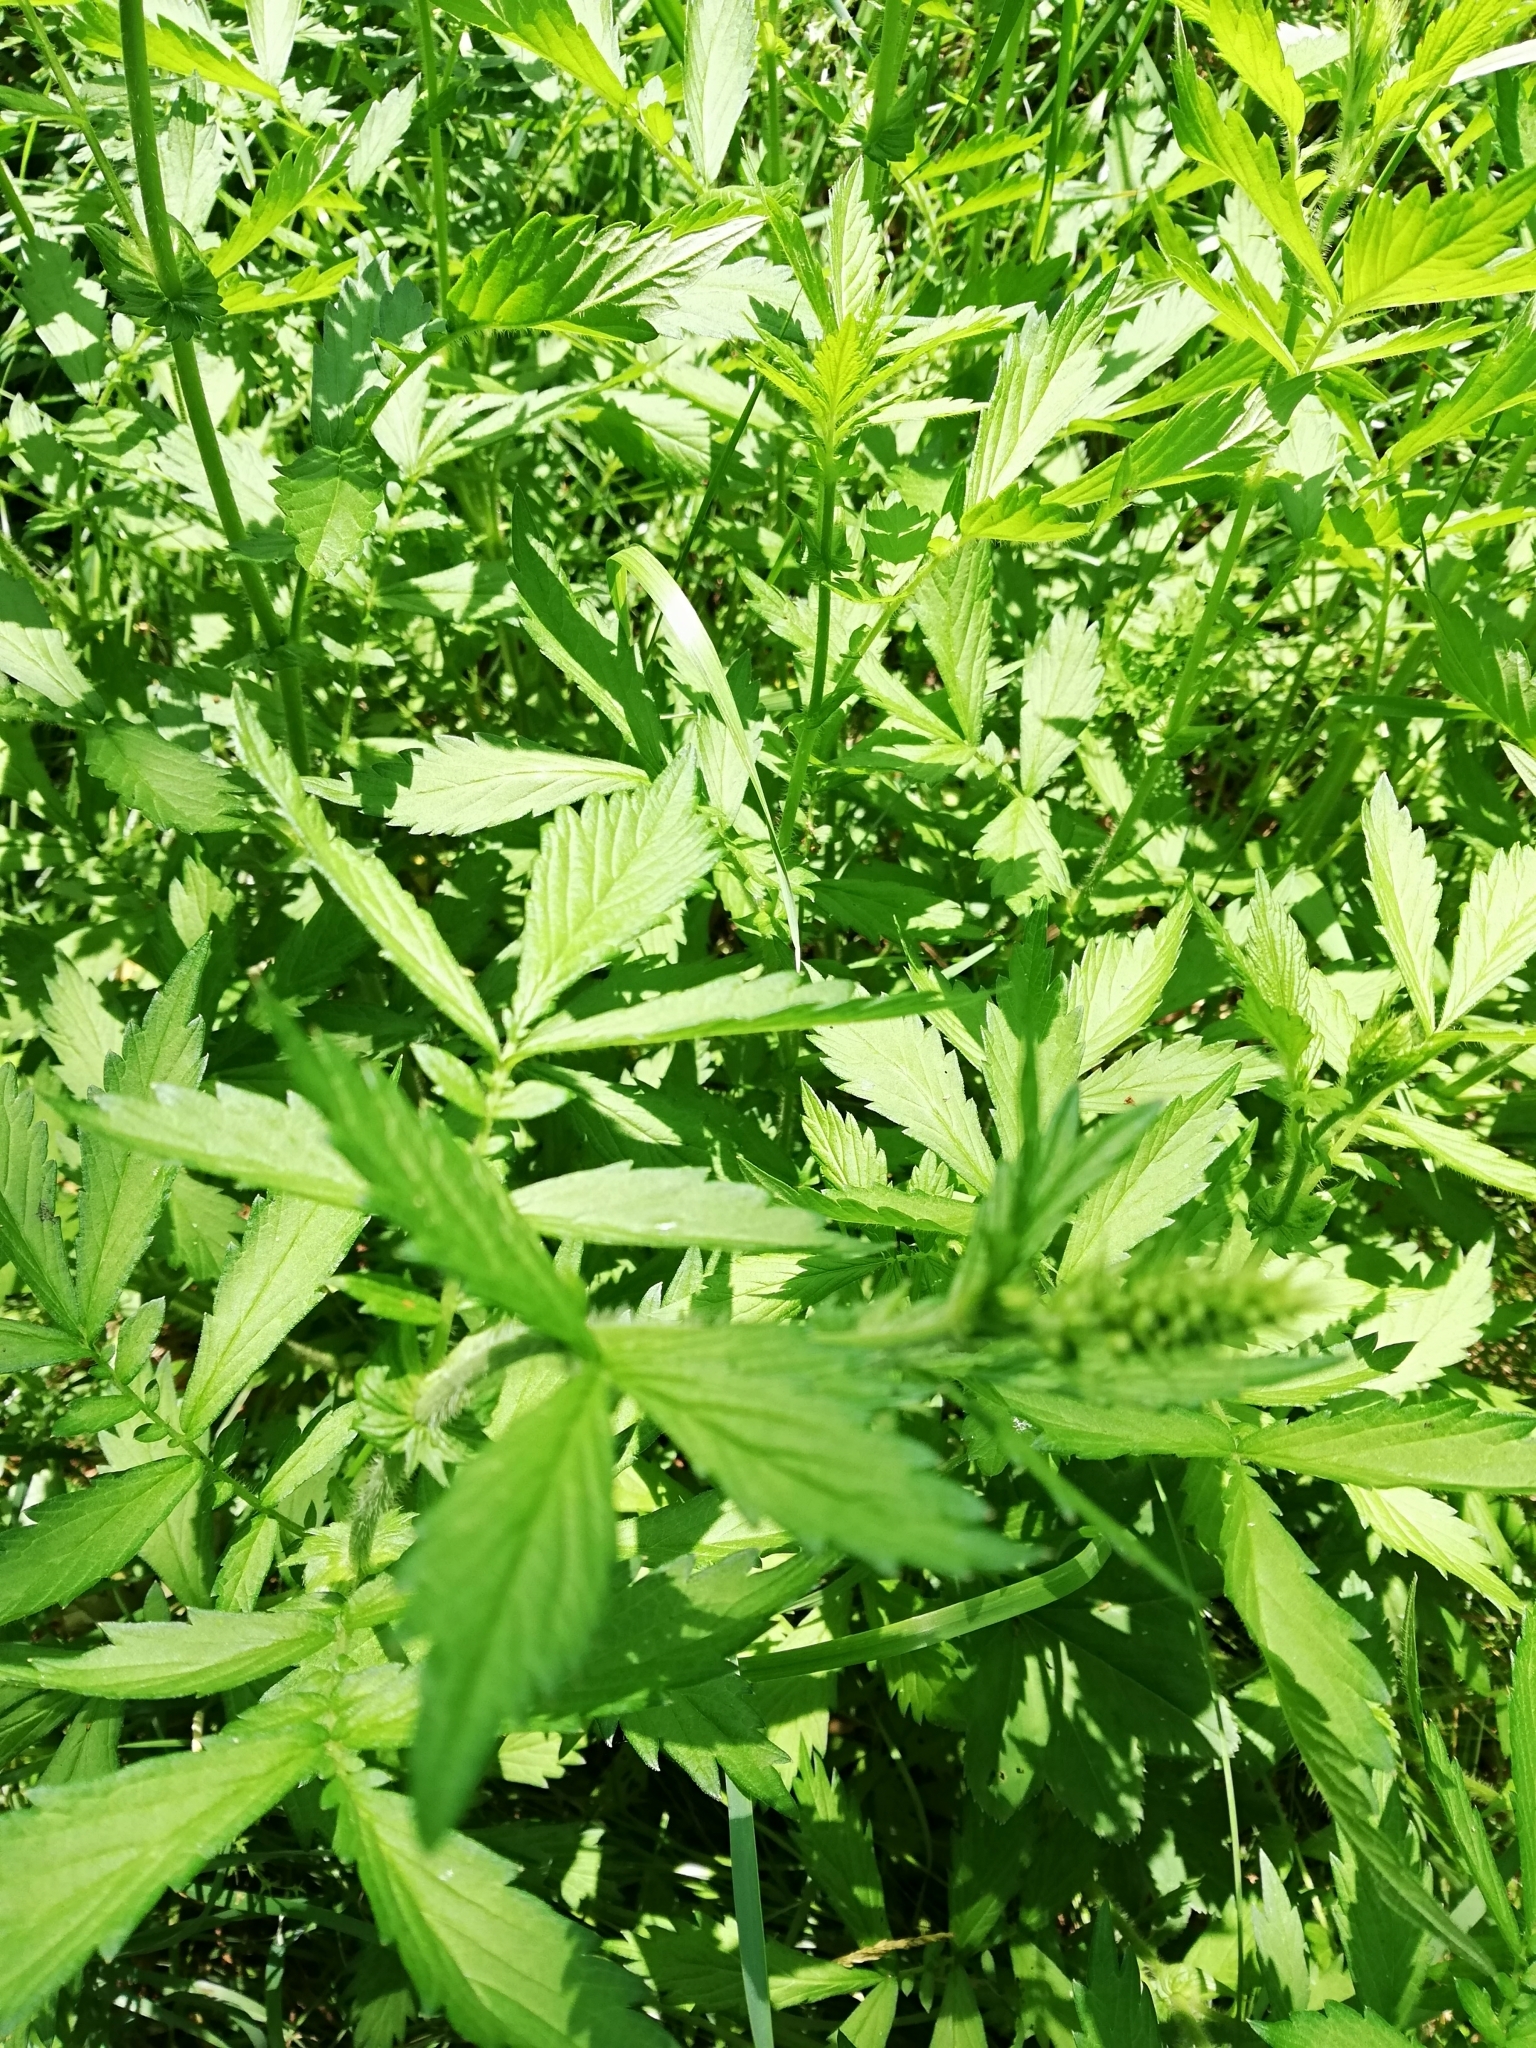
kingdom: Plantae
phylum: Tracheophyta
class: Magnoliopsida
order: Rosales
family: Rosaceae
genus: Agrimonia
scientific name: Agrimonia pilosa
